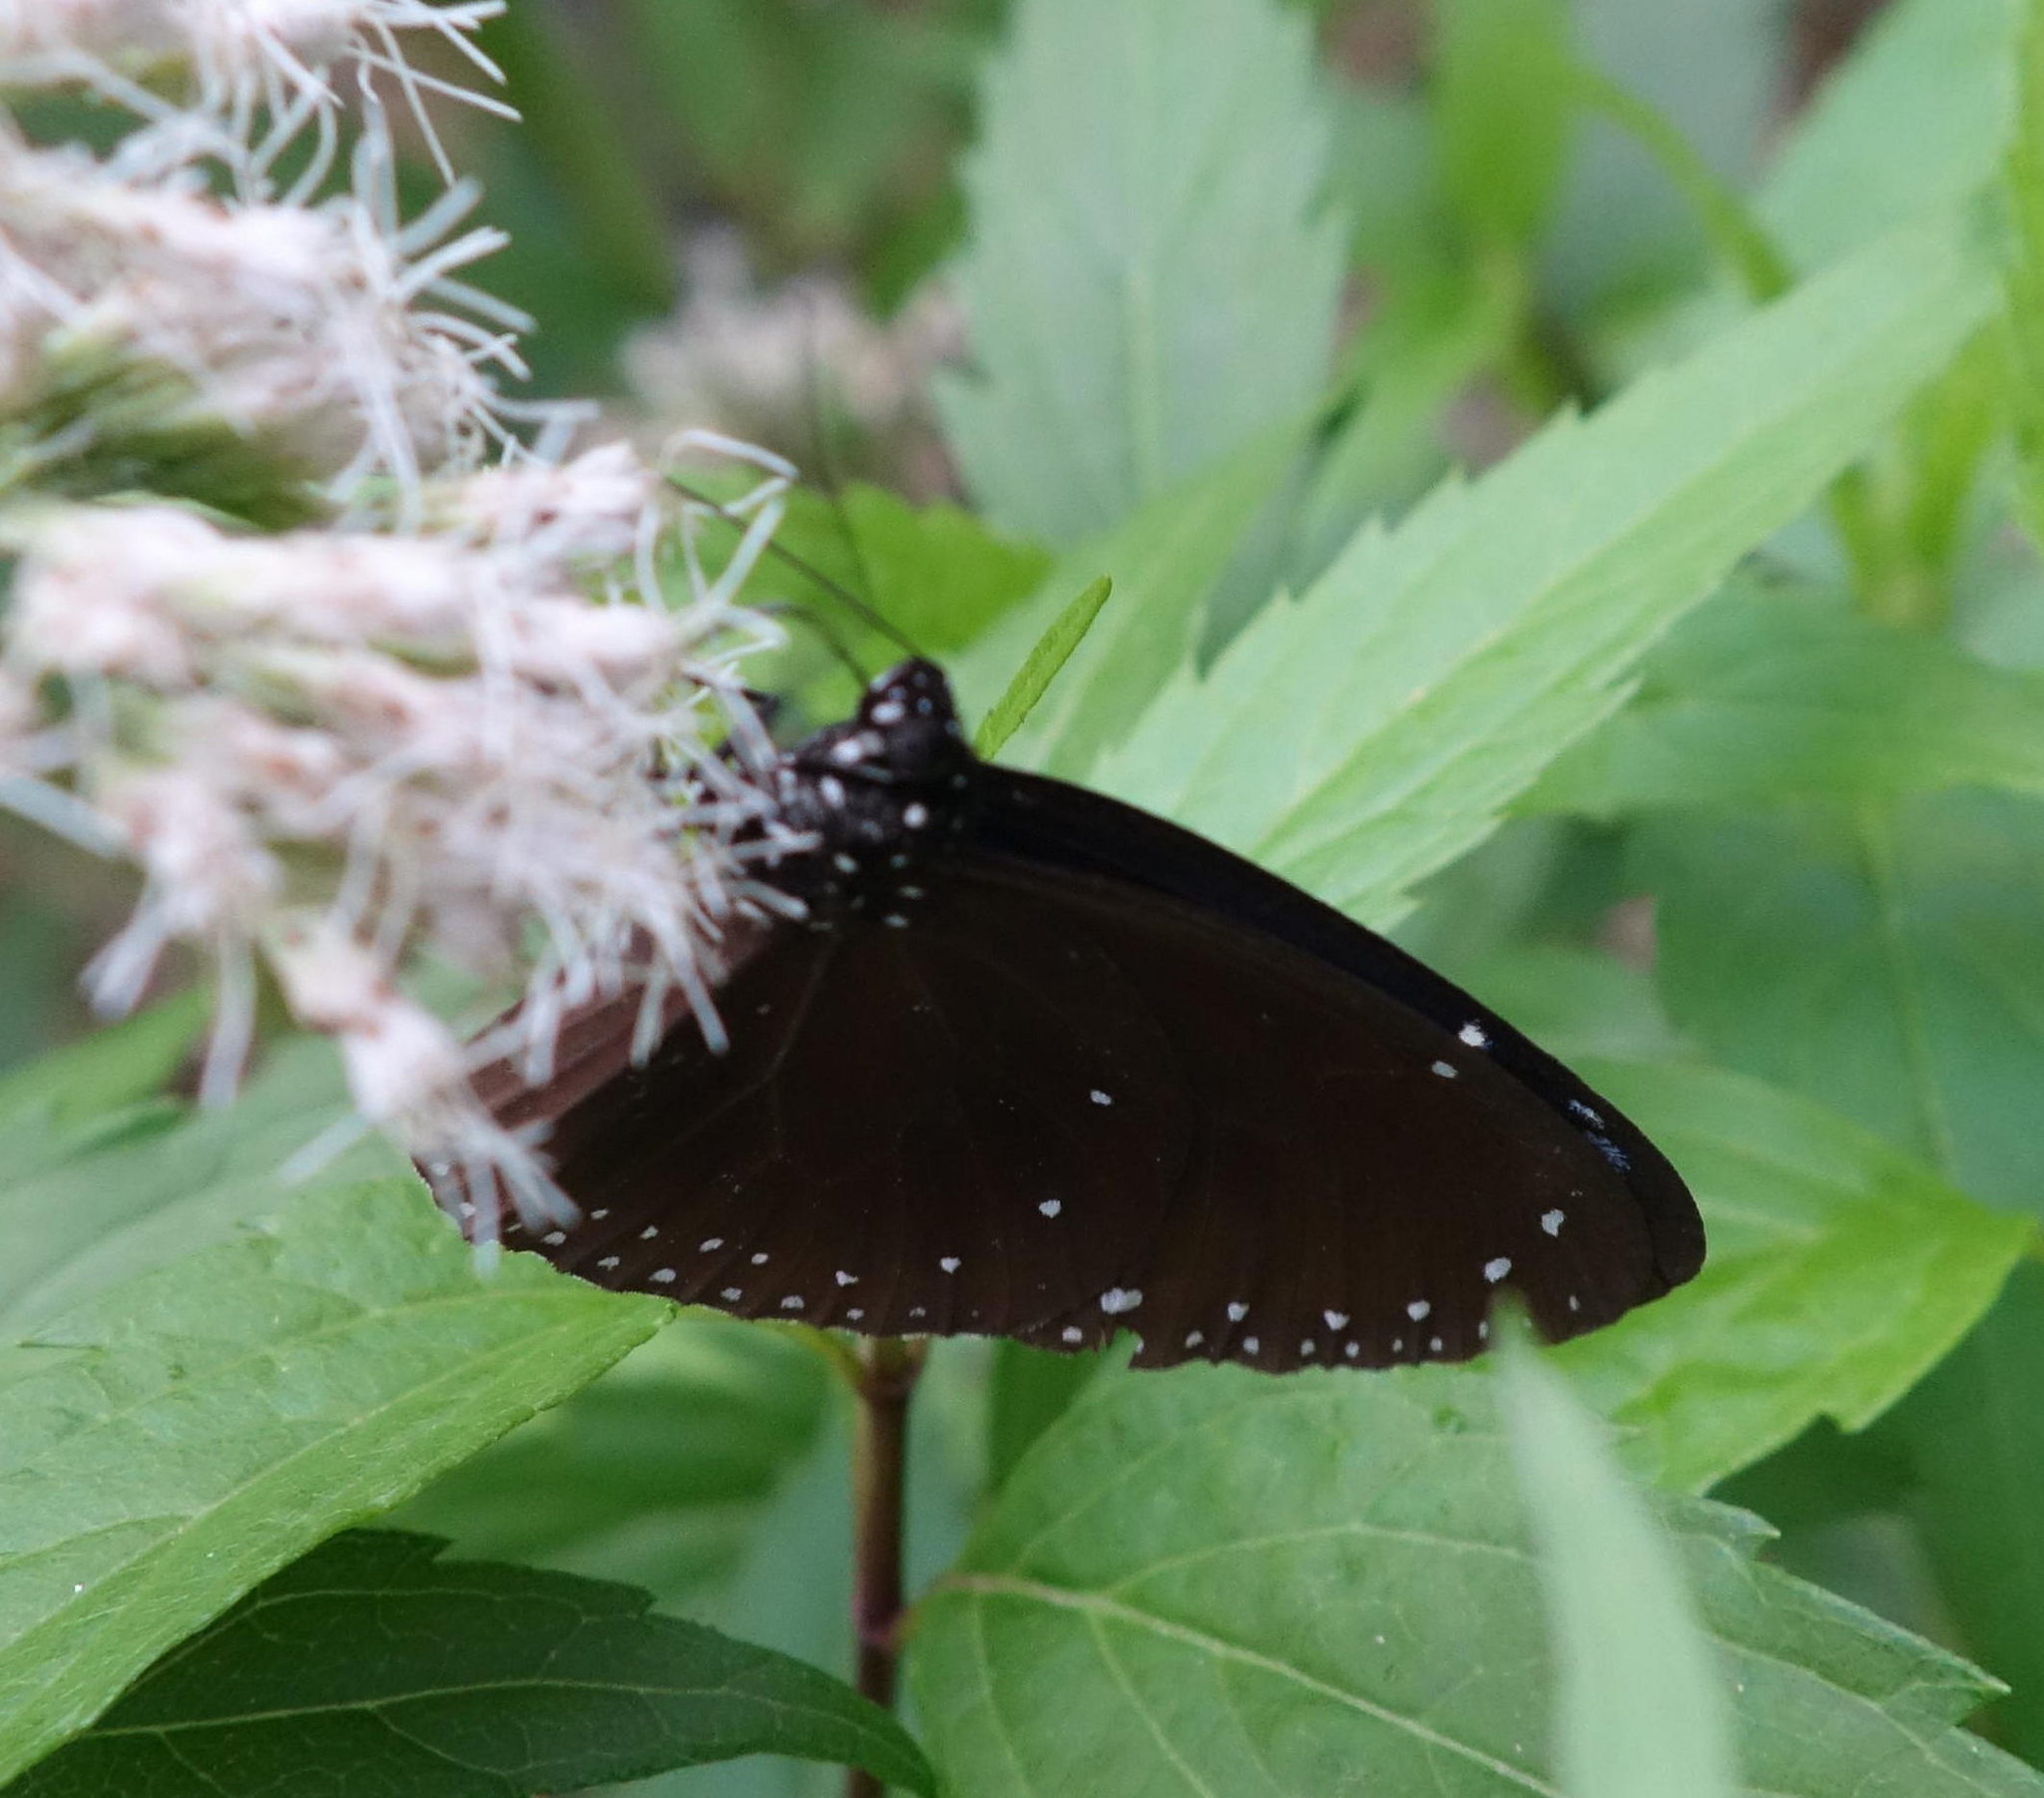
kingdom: Animalia
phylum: Arthropoda
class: Insecta
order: Lepidoptera
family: Nymphalidae
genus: Euploea
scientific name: Euploea tulliolus
